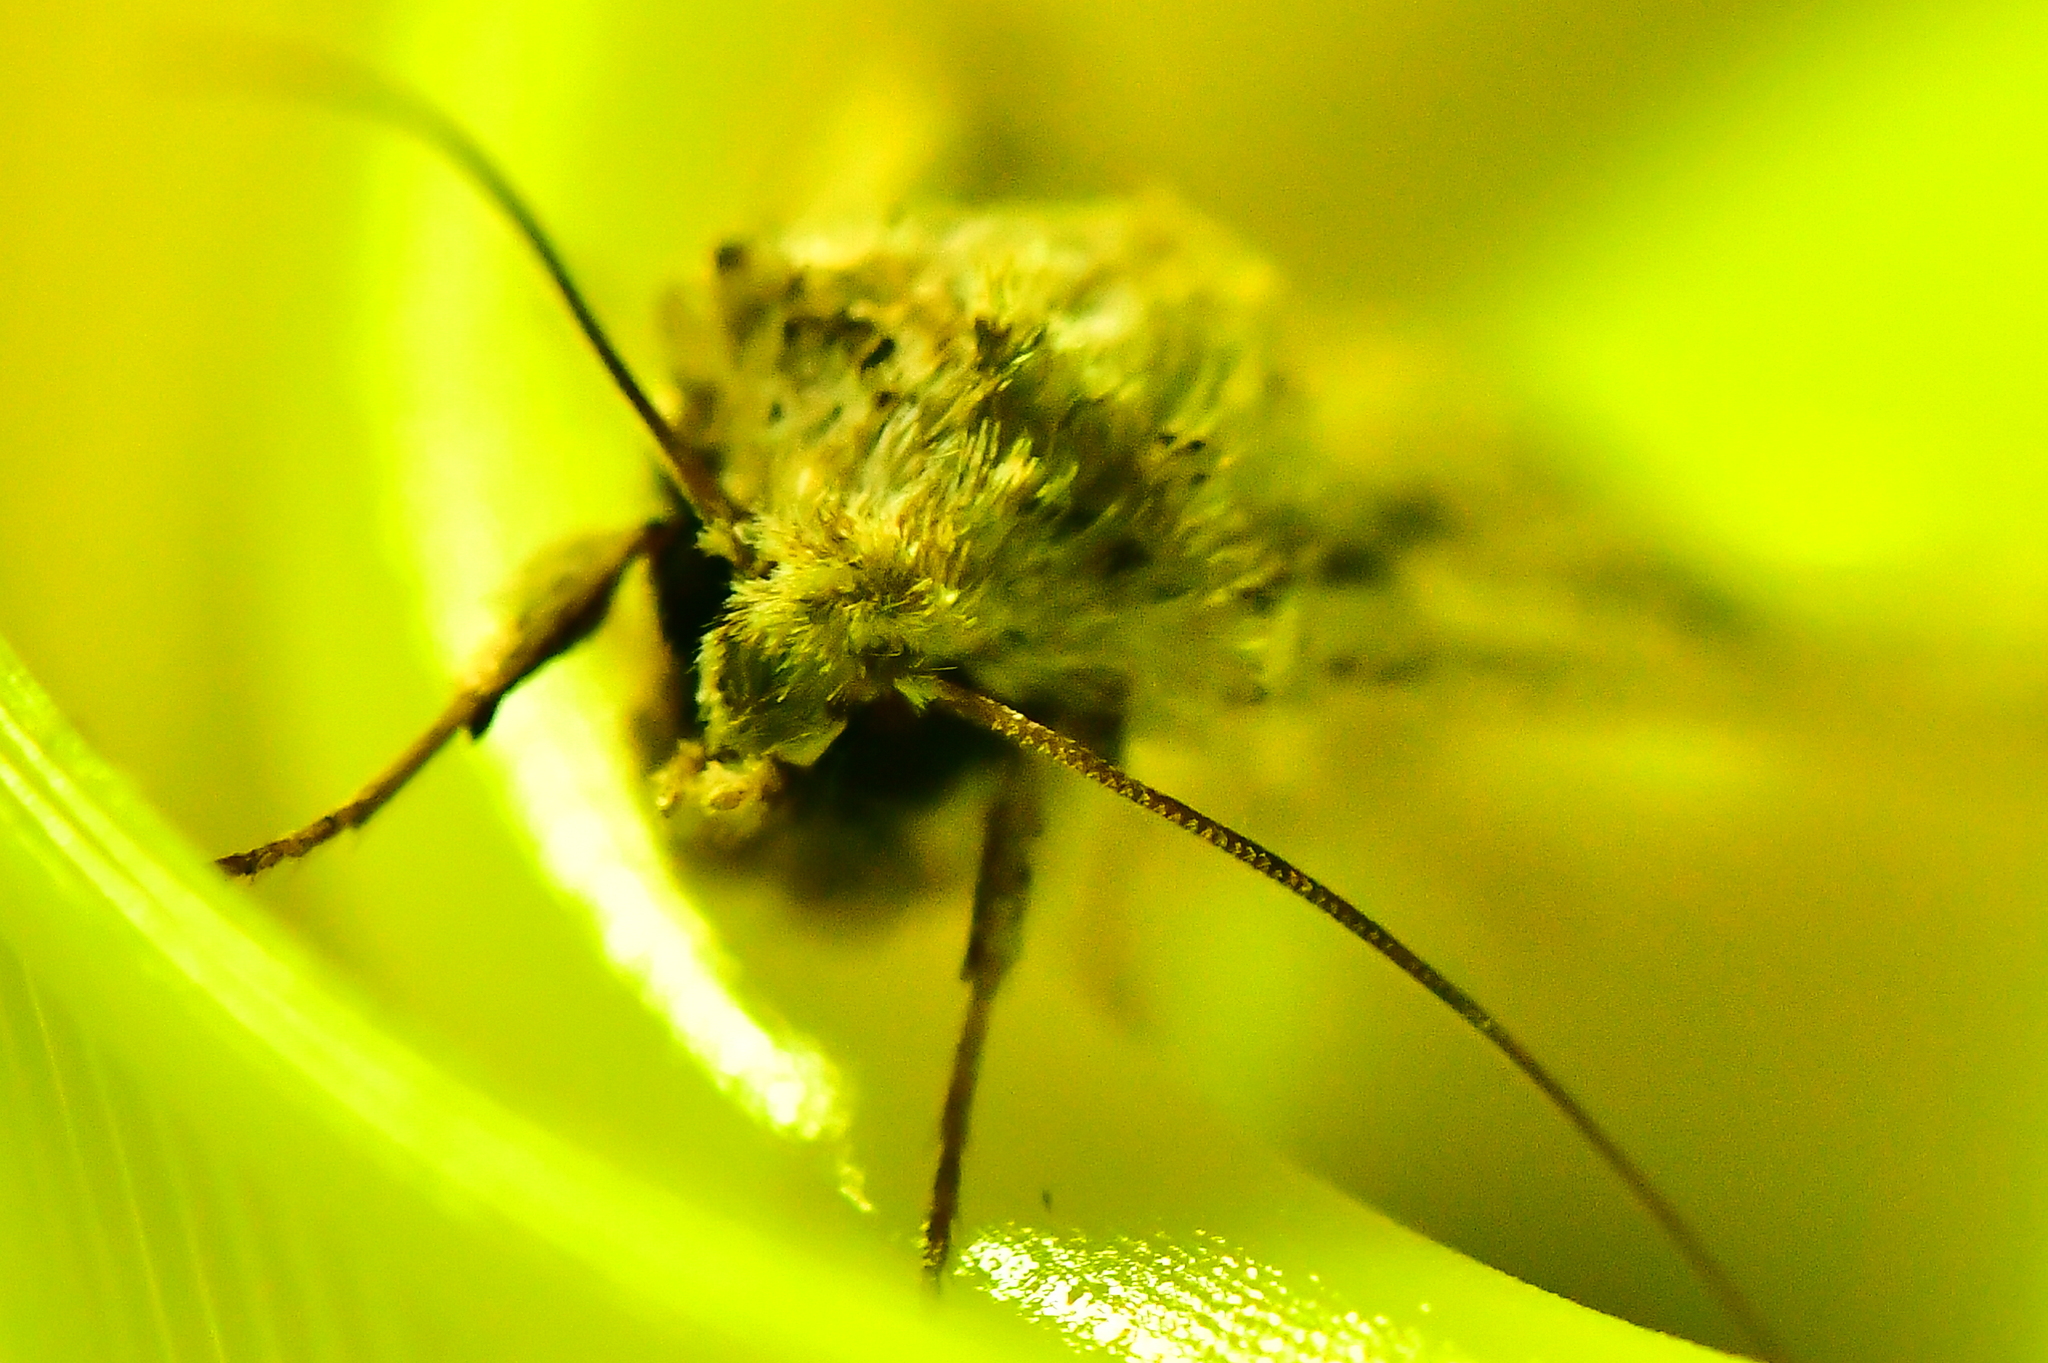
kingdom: Animalia
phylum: Arthropoda
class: Insecta
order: Lepidoptera
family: Noctuidae
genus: Ichneutica
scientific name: Ichneutica lignana
